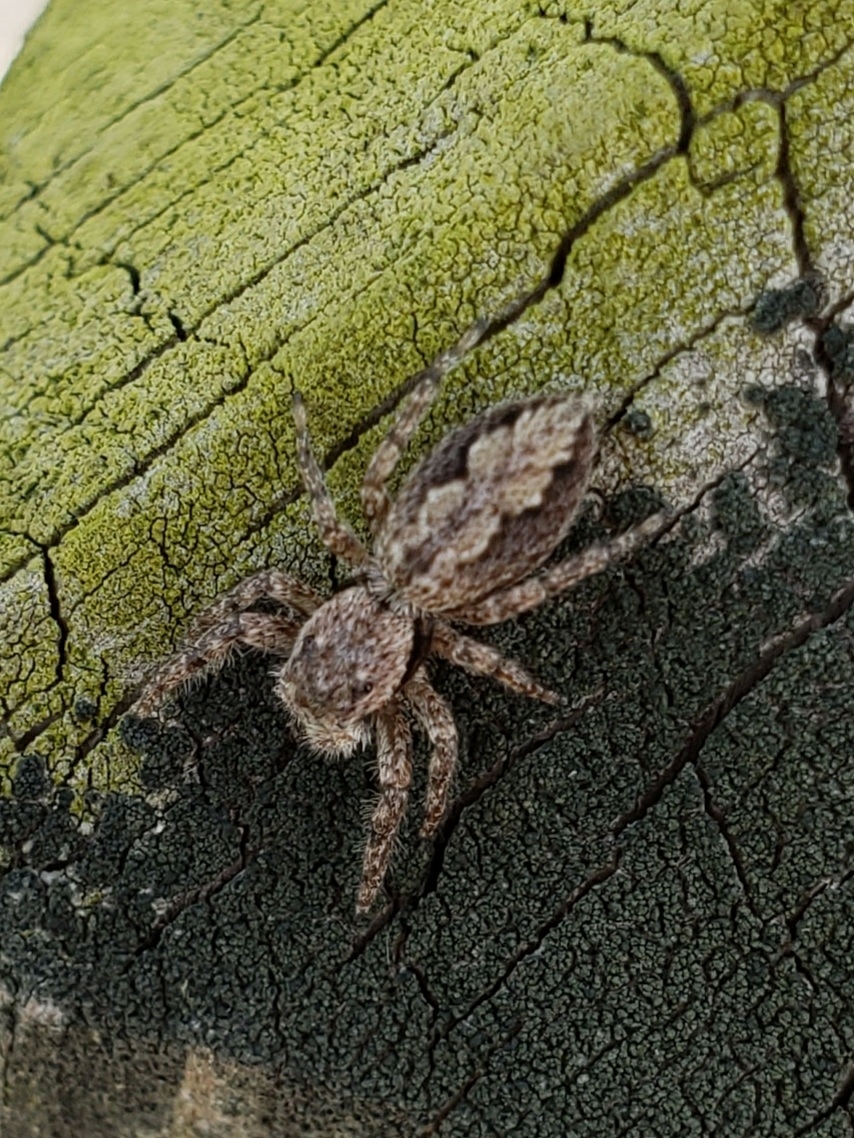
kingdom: Animalia
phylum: Arthropoda
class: Arachnida
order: Araneae
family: Salticidae
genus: Platycryptus
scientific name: Platycryptus undatus
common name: Tan jumping spider
